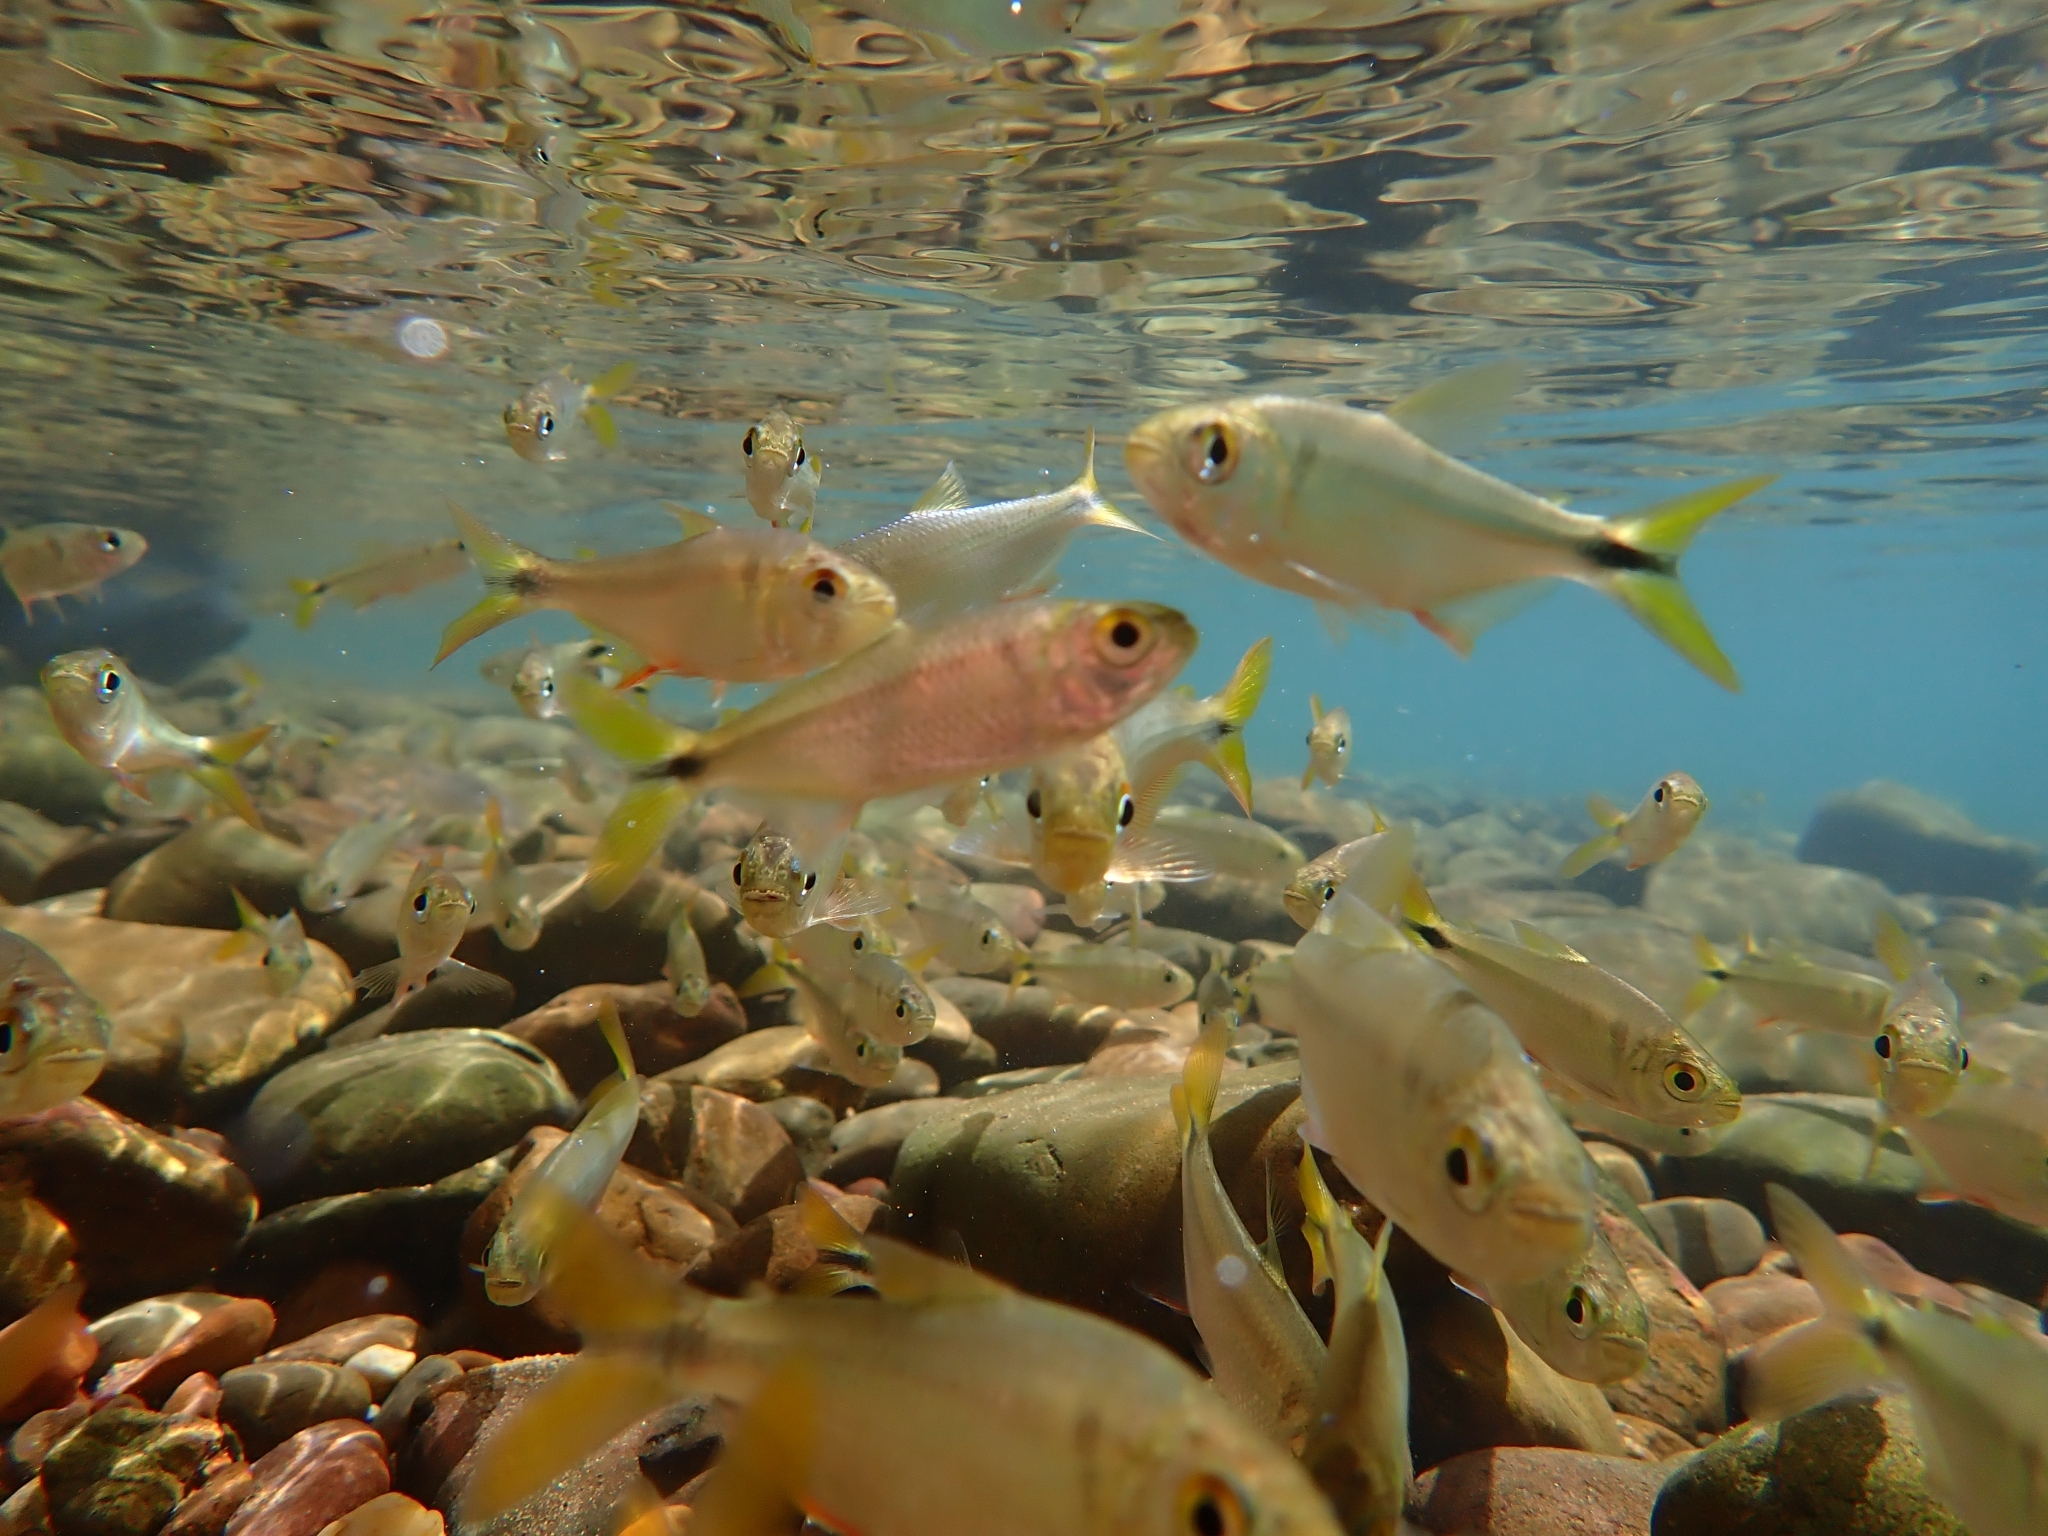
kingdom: Animalia
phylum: Chordata
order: Characiformes
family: Characidae
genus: Astyanax
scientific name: Astyanax bacalarensis
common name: Bacalar tetra
